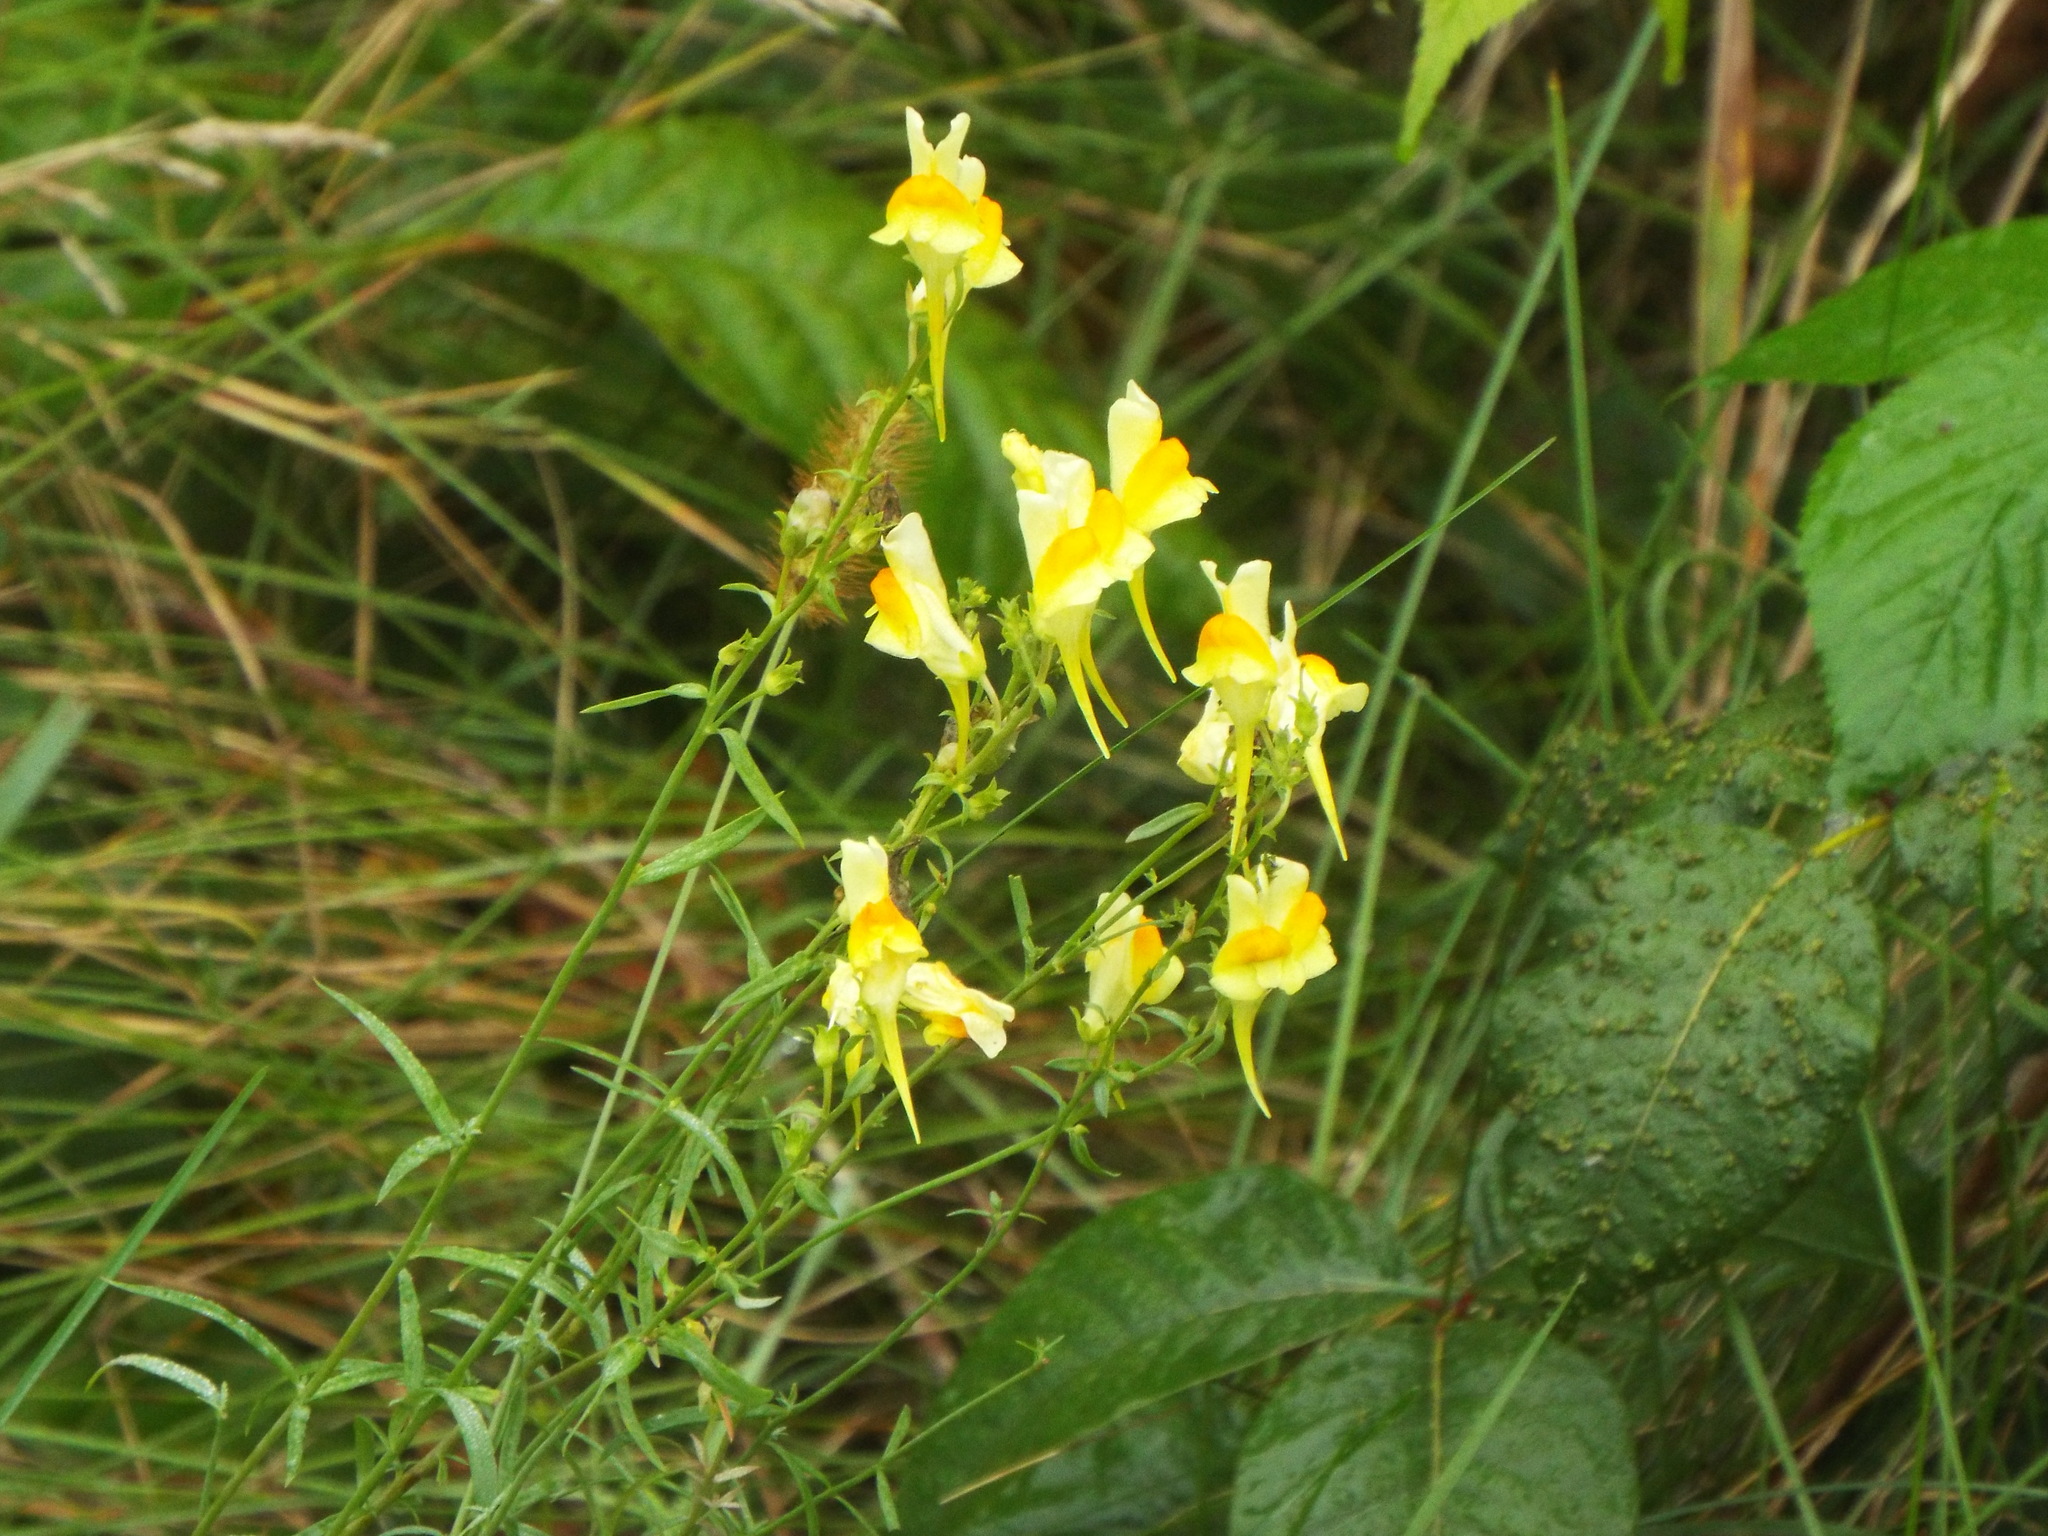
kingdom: Plantae
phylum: Tracheophyta
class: Magnoliopsida
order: Lamiales
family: Plantaginaceae
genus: Linaria
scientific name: Linaria vulgaris
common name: Butter and eggs
